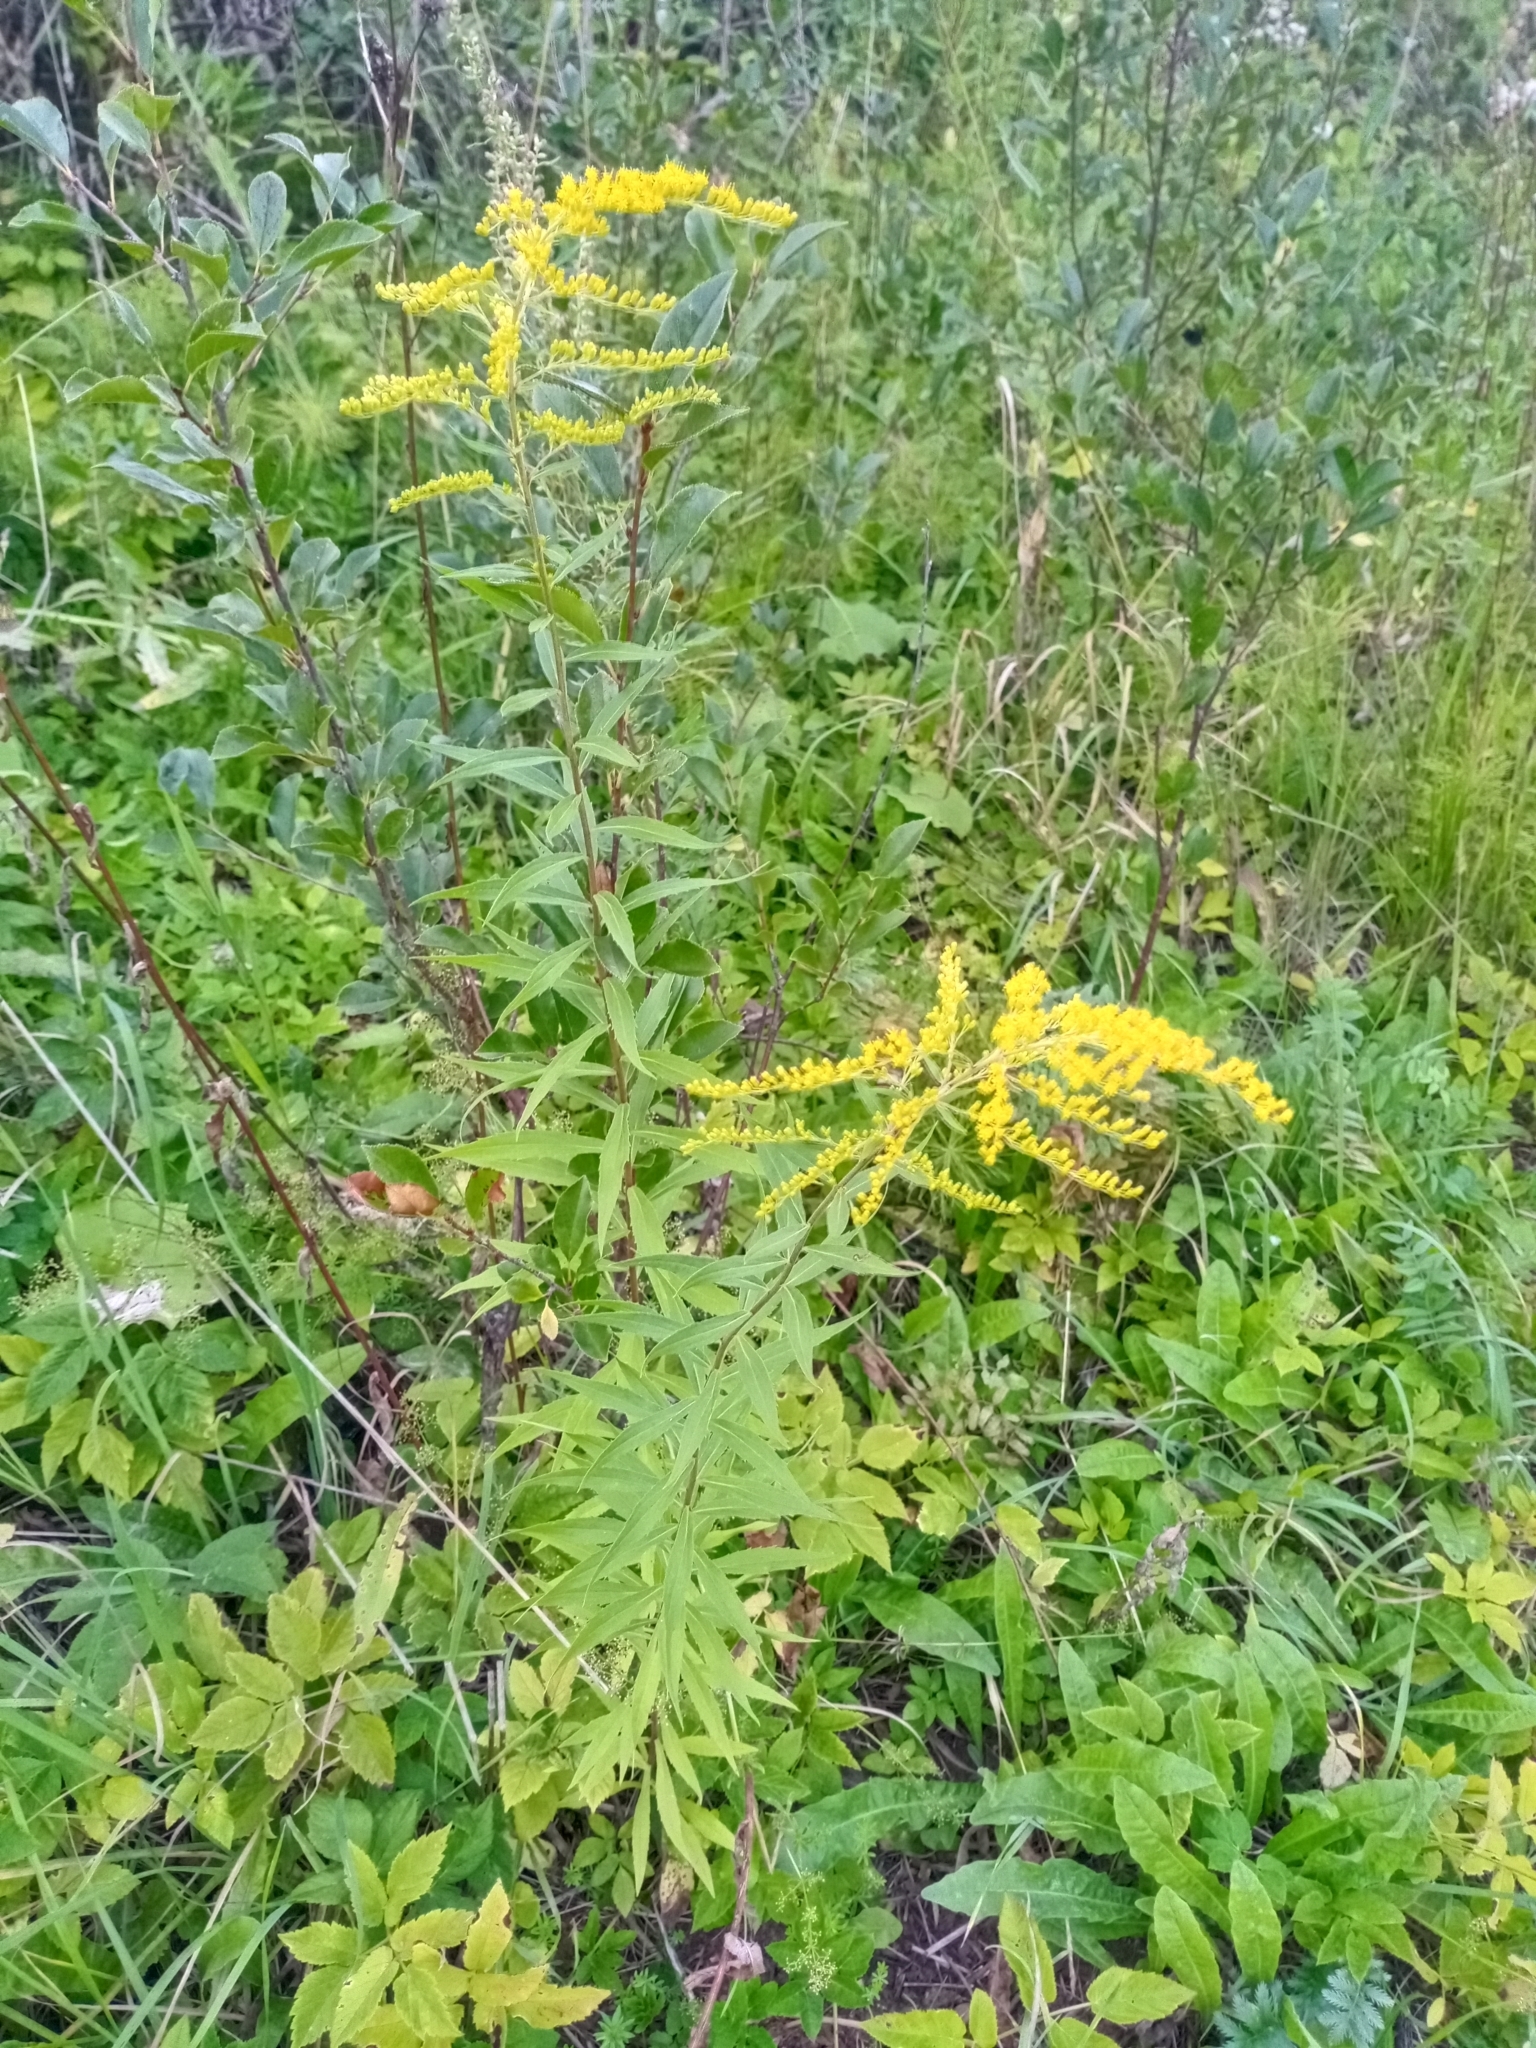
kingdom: Plantae
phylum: Tracheophyta
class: Magnoliopsida
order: Asterales
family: Asteraceae
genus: Solidago
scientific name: Solidago canadensis
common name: Canada goldenrod
